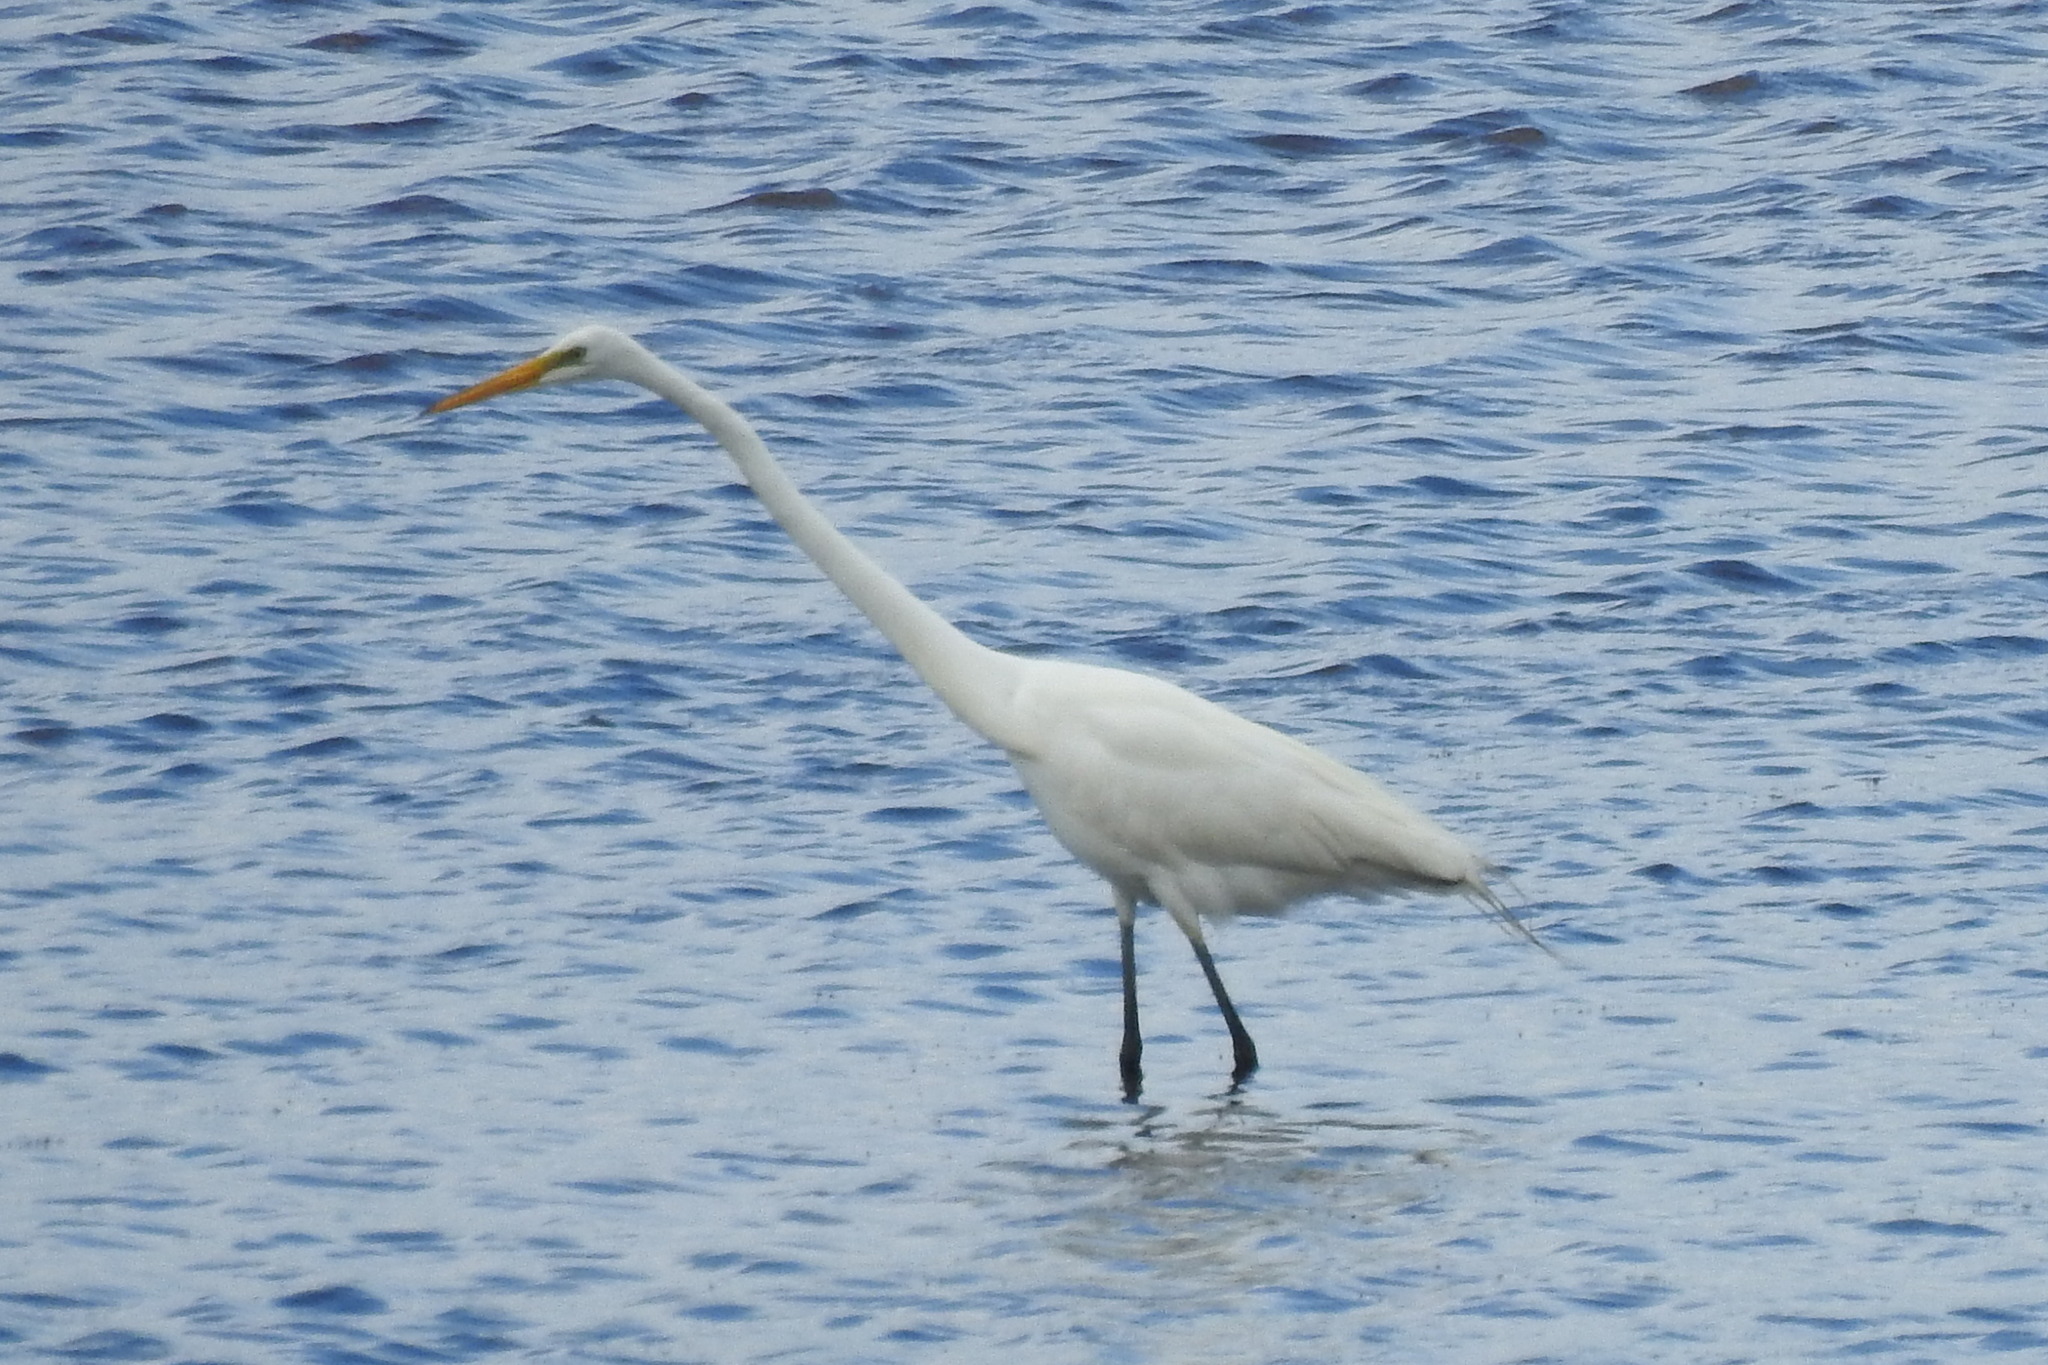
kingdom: Animalia
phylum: Chordata
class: Aves
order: Pelecaniformes
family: Ardeidae
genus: Ardea
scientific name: Ardea alba
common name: Great egret
